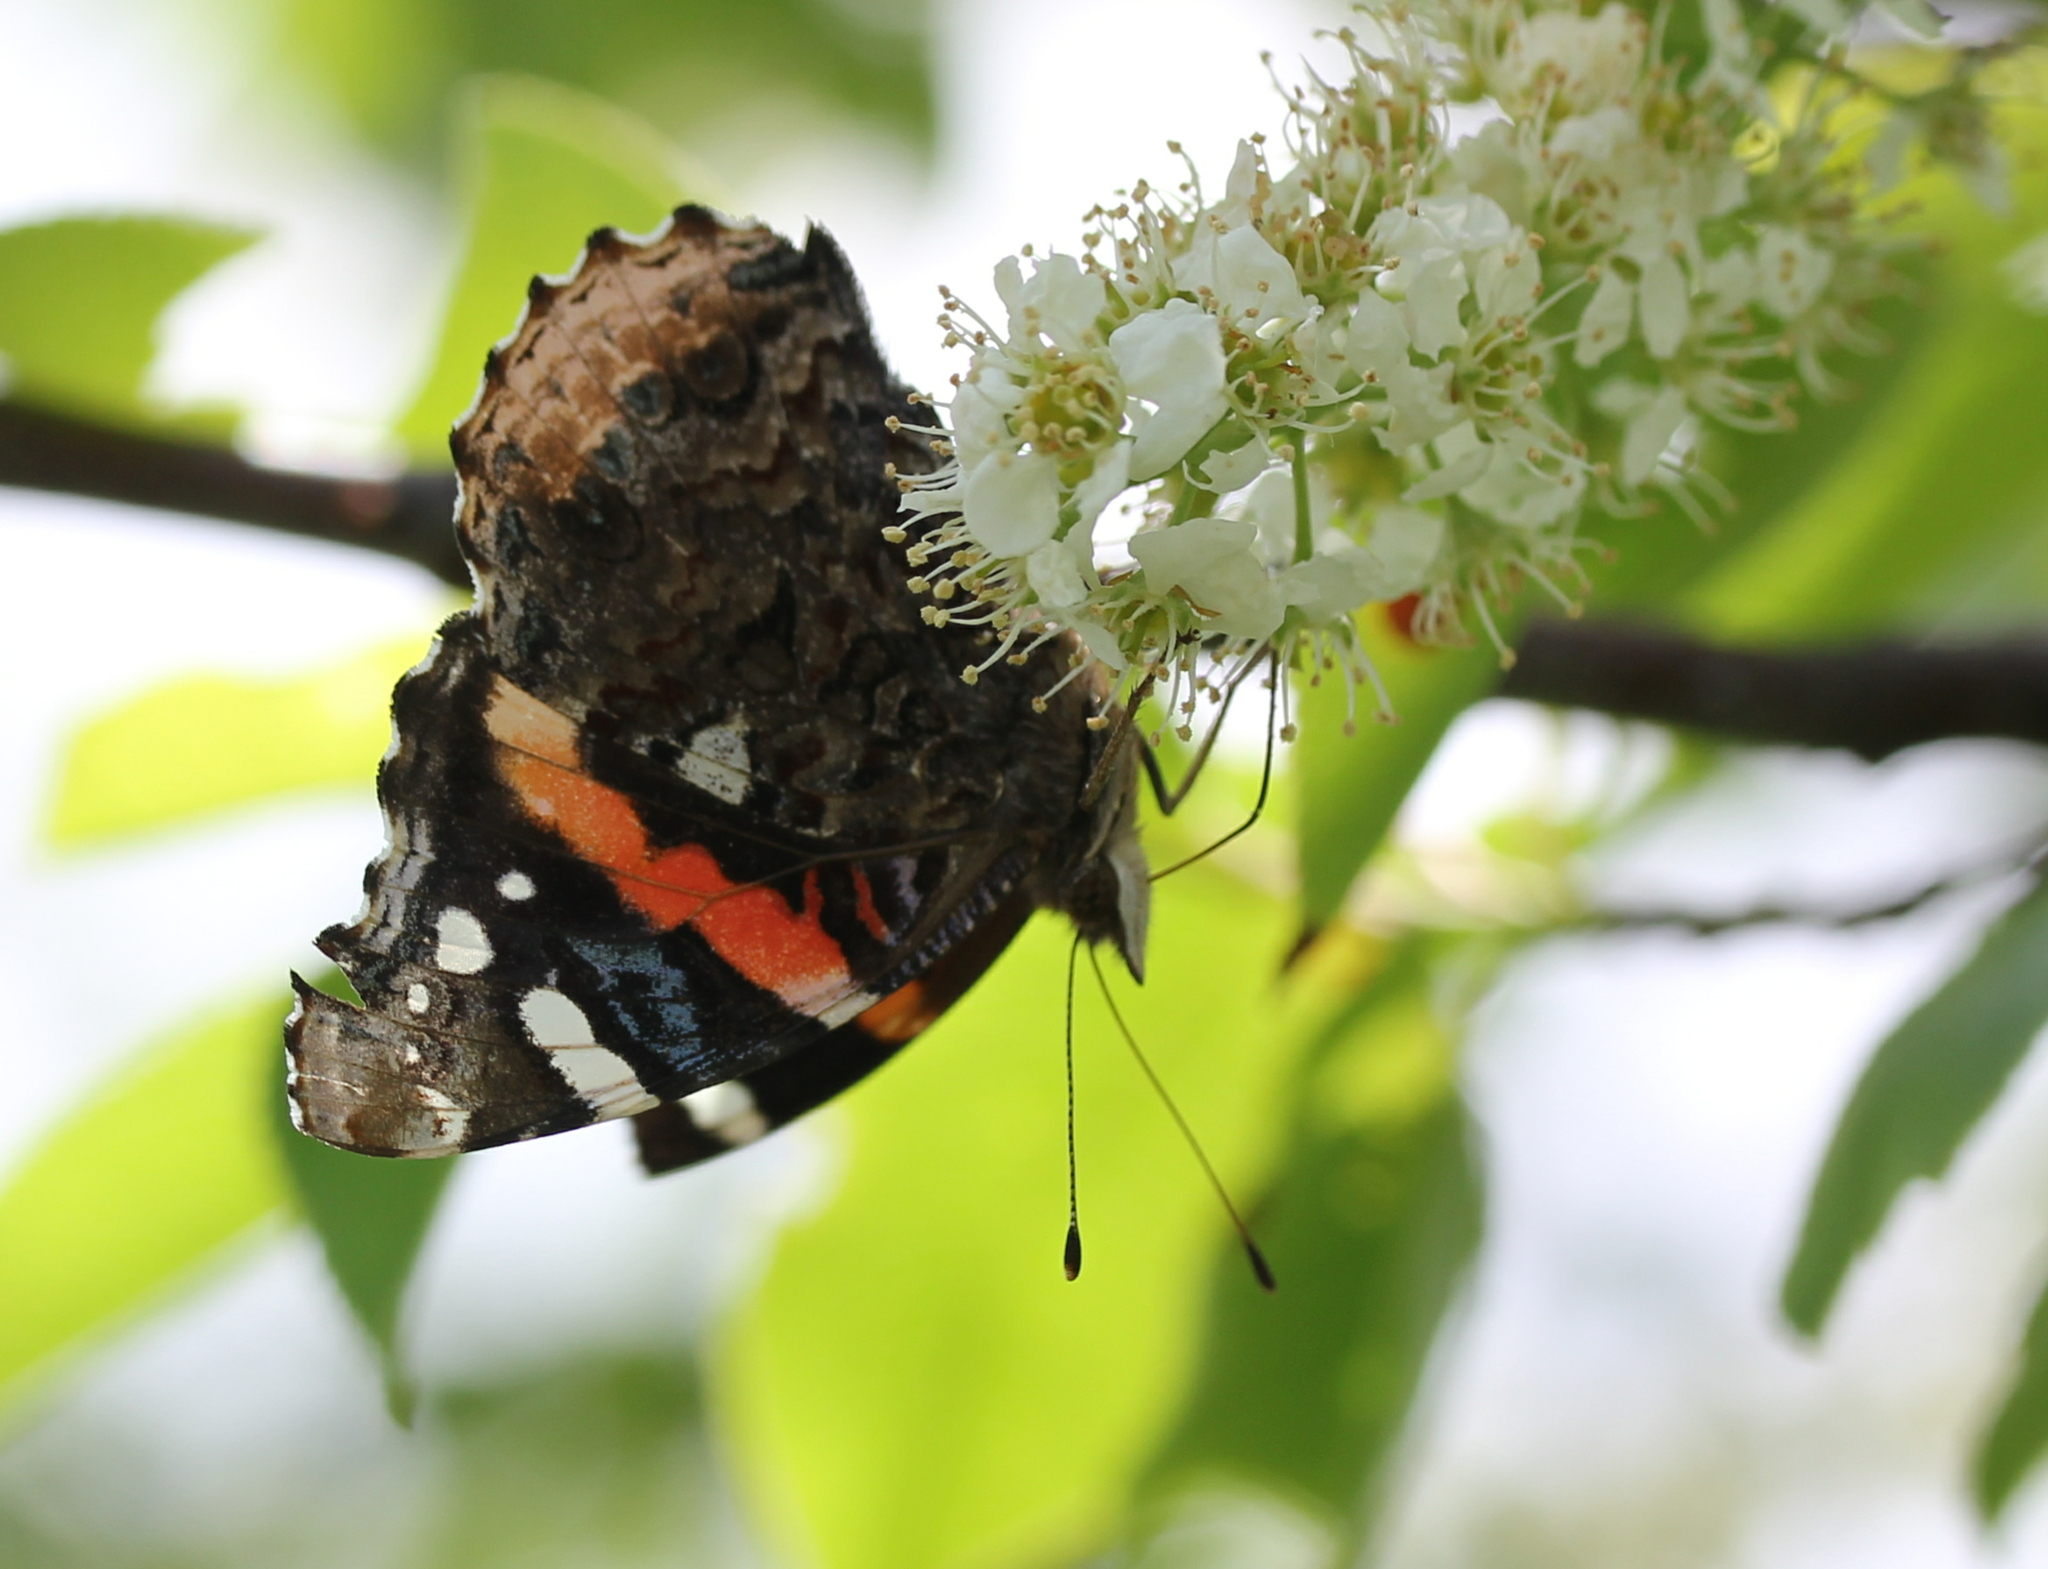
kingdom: Animalia
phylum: Arthropoda
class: Insecta
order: Lepidoptera
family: Nymphalidae
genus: Vanessa
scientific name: Vanessa atalanta
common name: Red admiral
